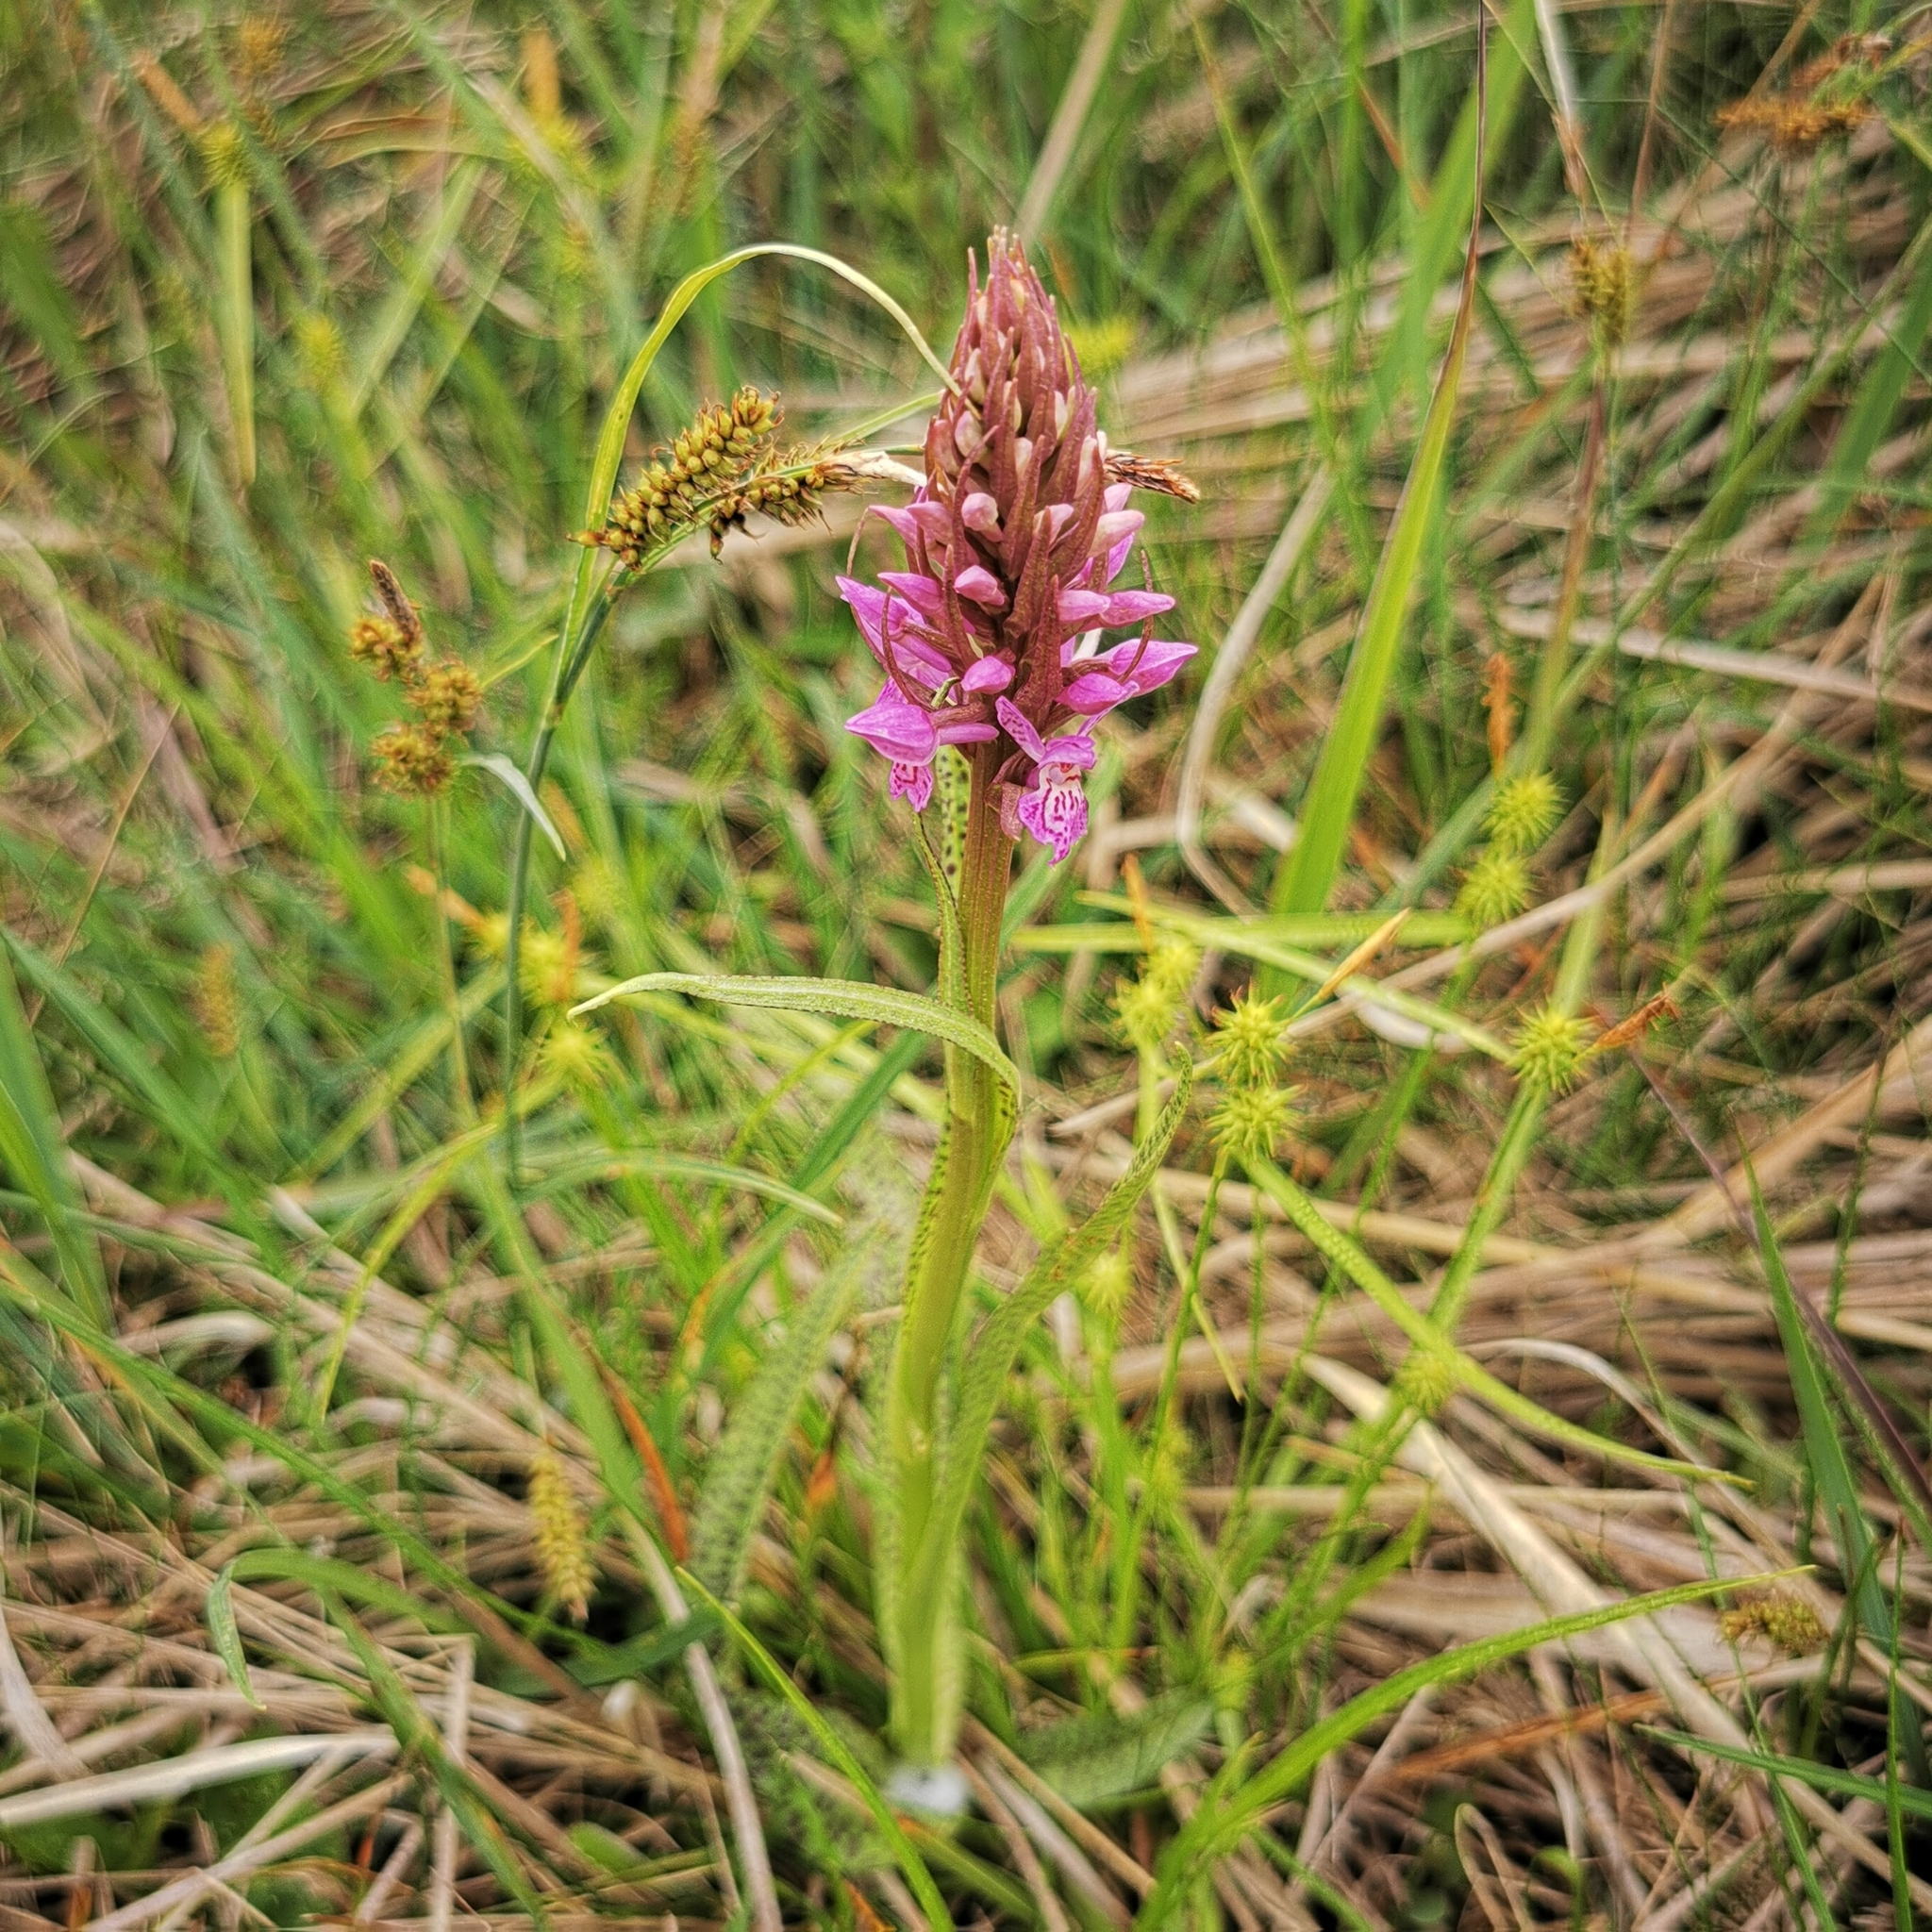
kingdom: Plantae
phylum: Tracheophyta
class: Liliopsida
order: Asparagales
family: Orchidaceae
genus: Dactylorhiza
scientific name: Dactylorhiza majalis
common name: Marsh orchid
